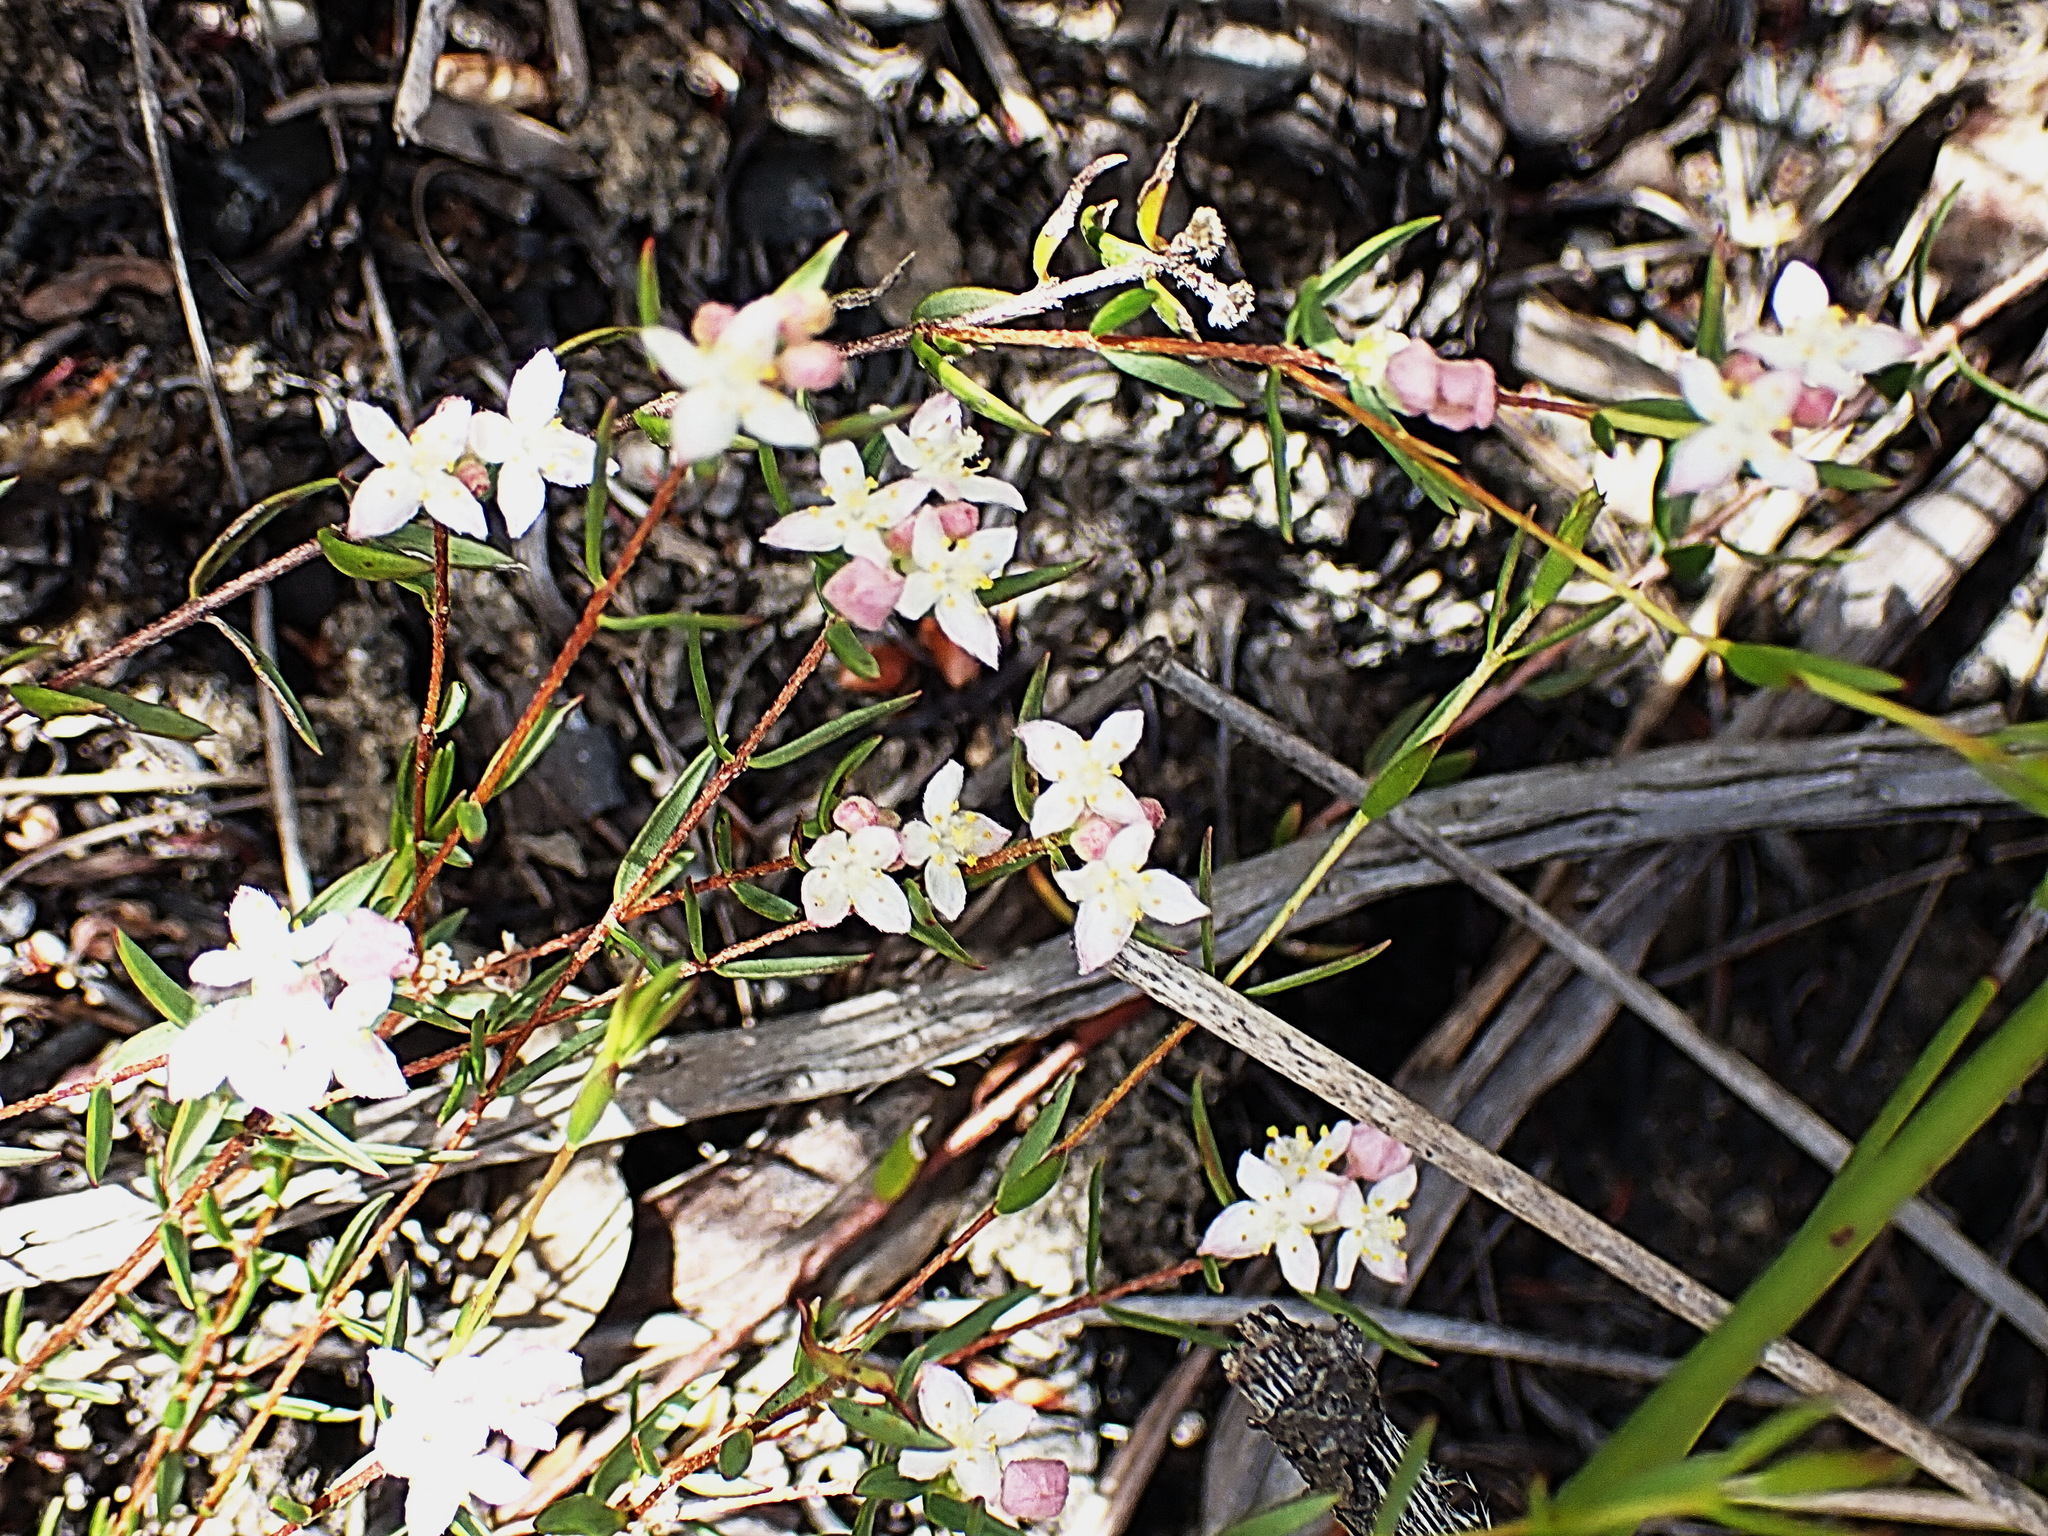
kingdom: Plantae
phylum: Tracheophyta
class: Magnoliopsida
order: Malvales
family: Thymelaeaceae
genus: Lachnaea
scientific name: Lachnaea burchellii
